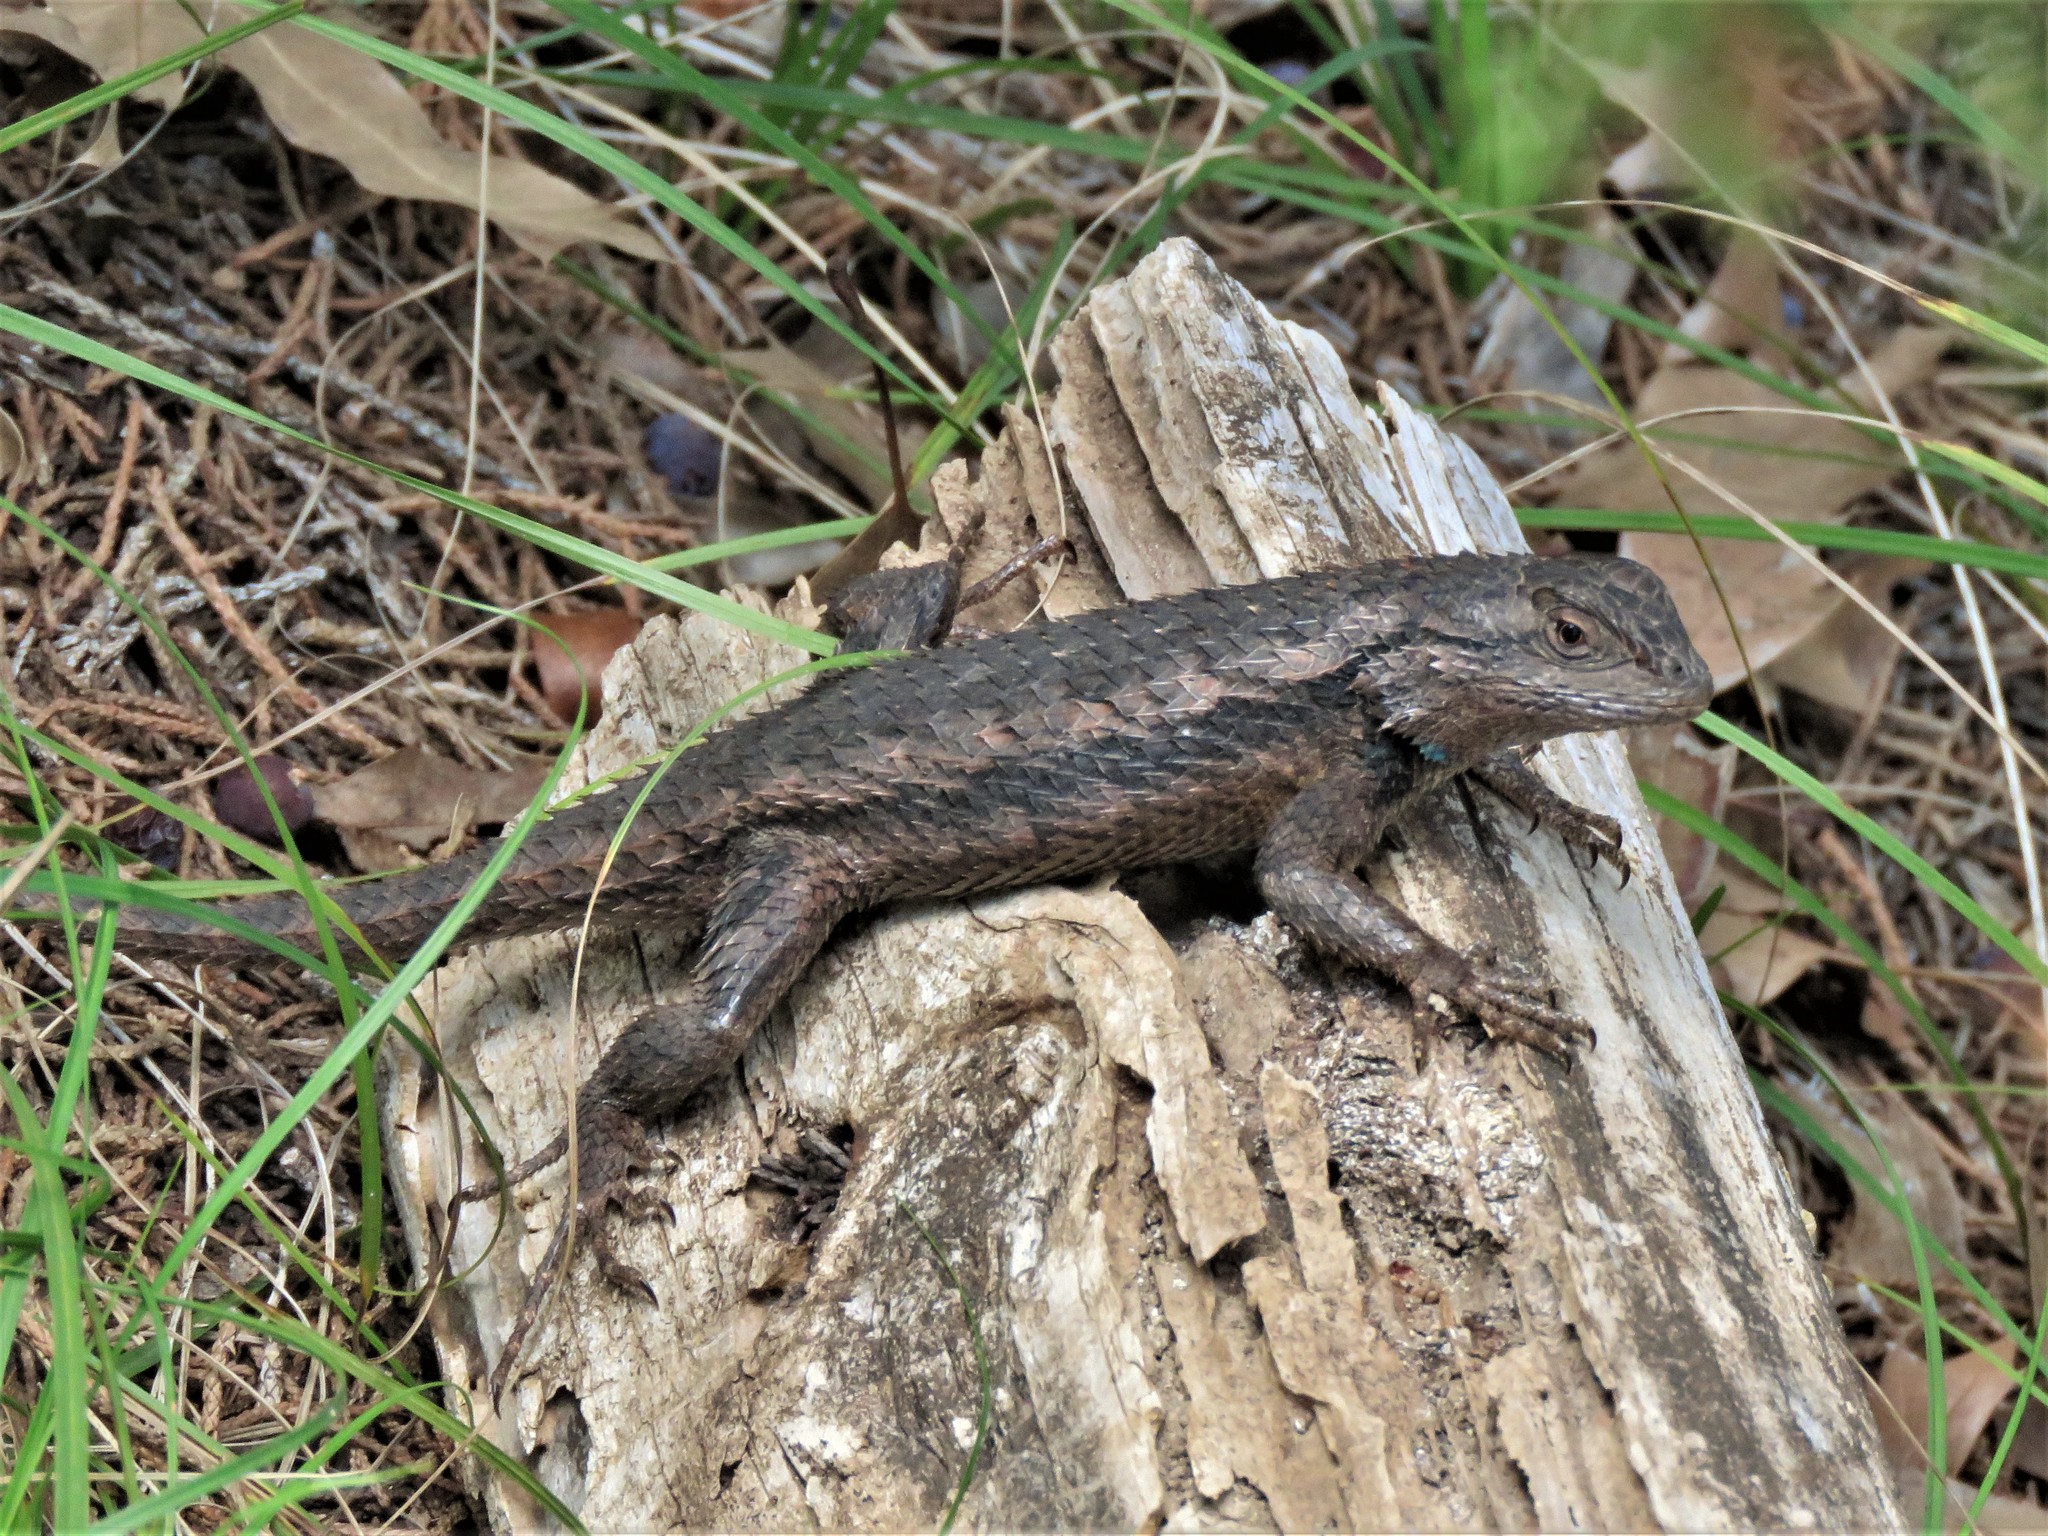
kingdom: Animalia
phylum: Chordata
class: Squamata
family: Phrynosomatidae
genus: Sceloporus
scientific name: Sceloporus olivaceus
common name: Texas spiny lizard
